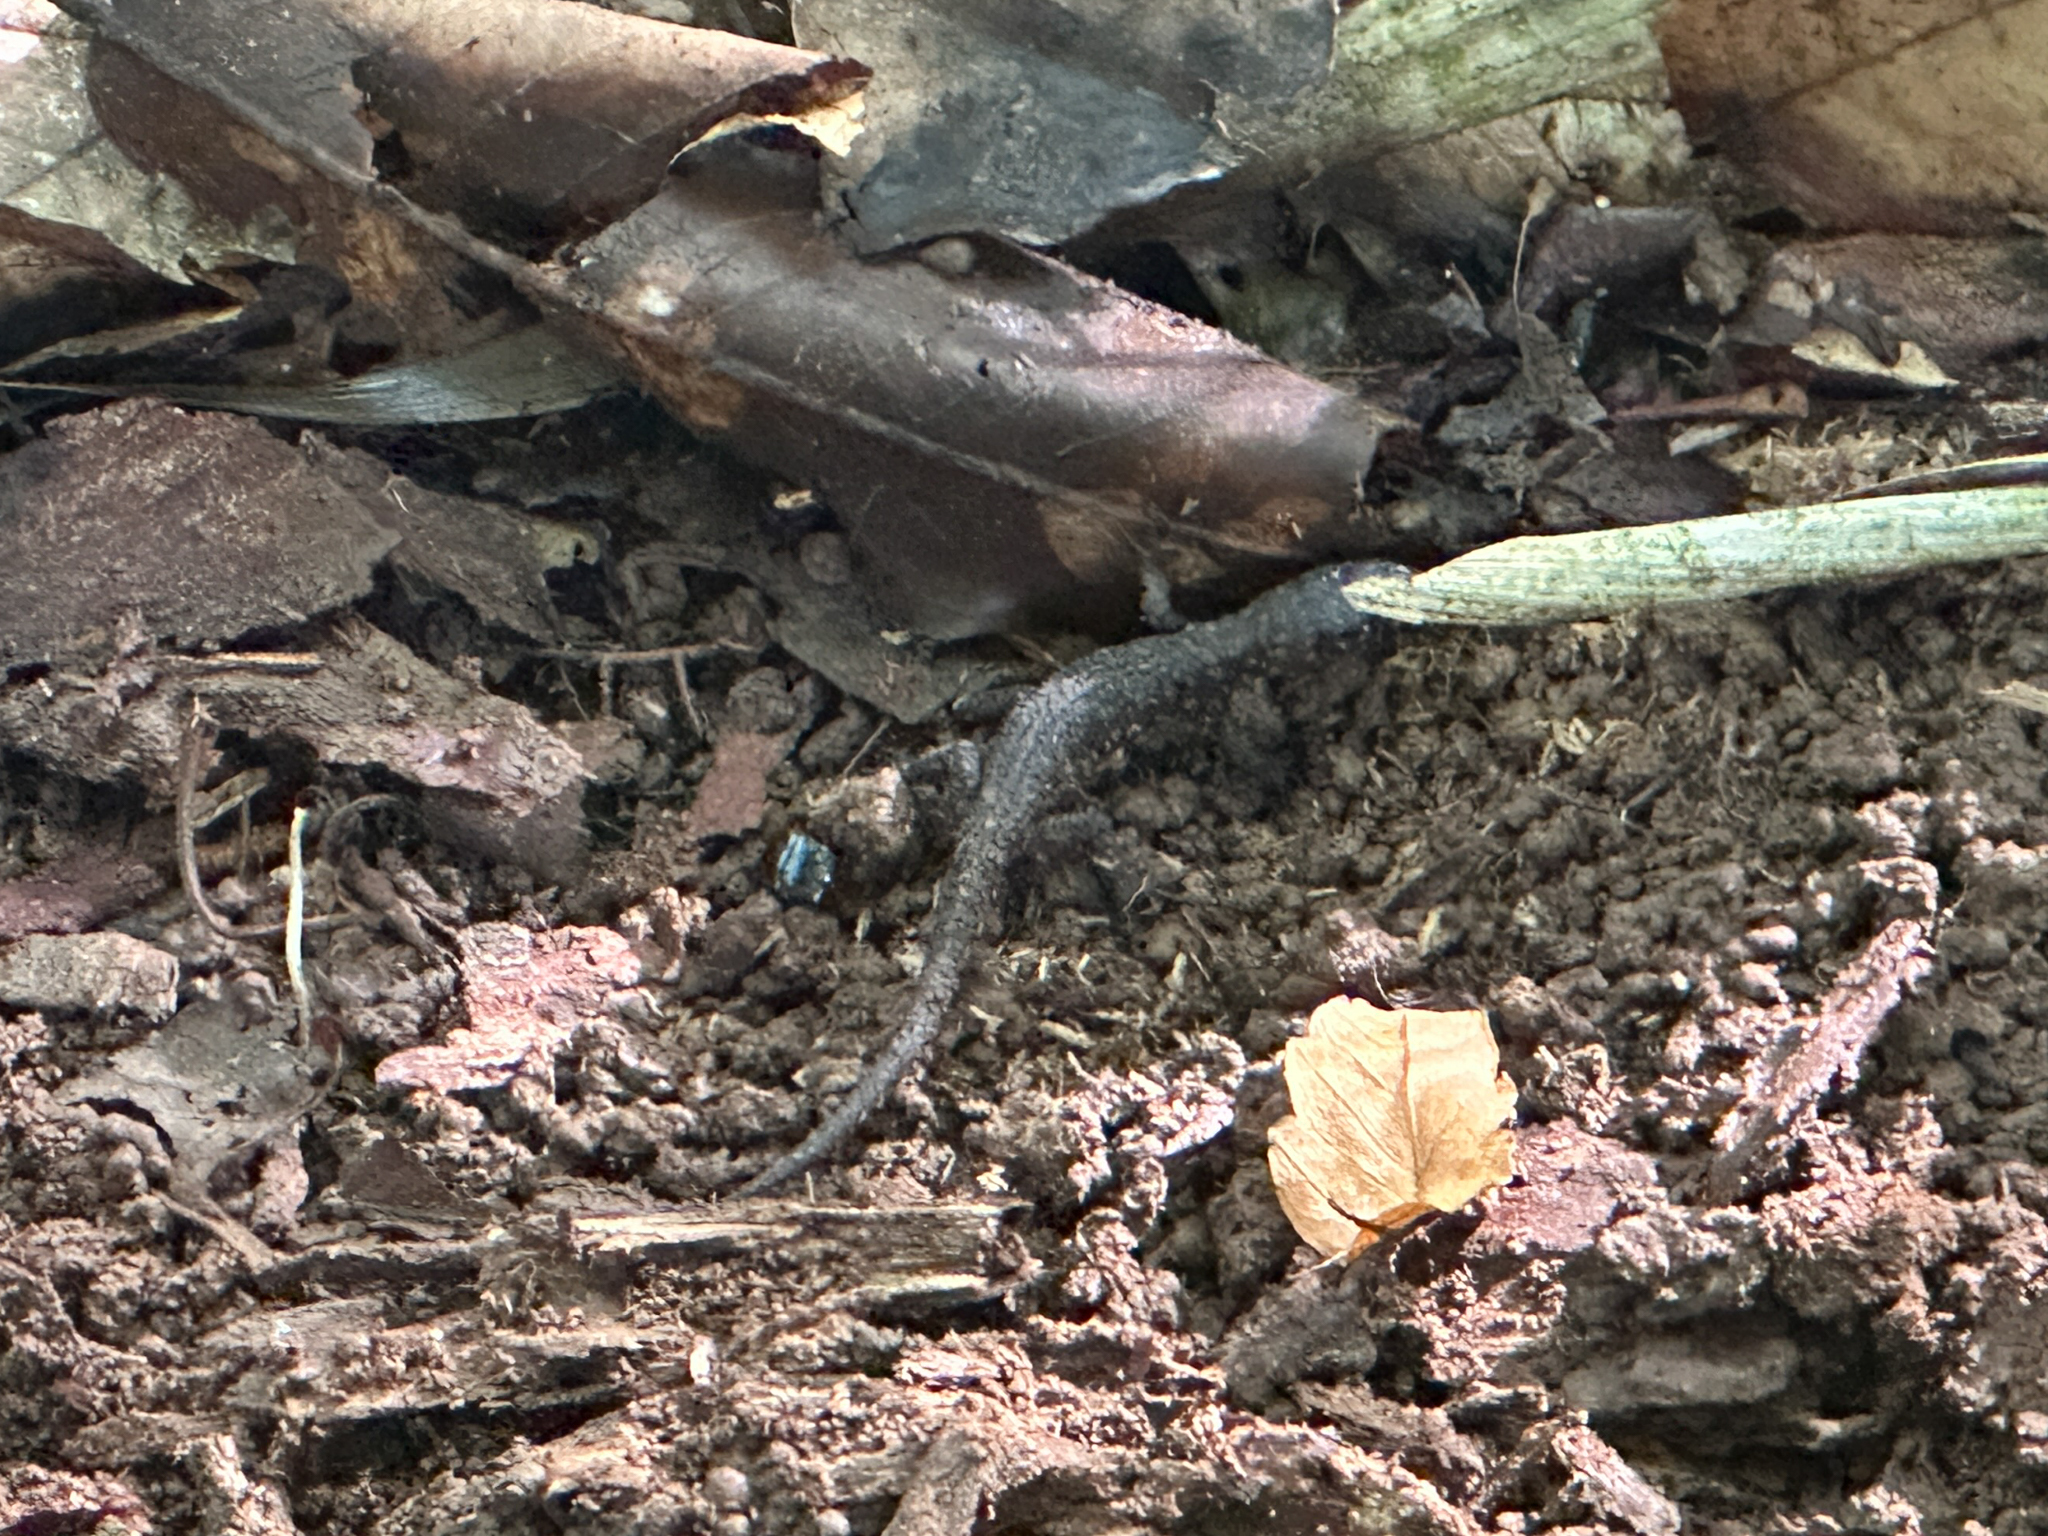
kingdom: Animalia
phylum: Chordata
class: Squamata
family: Xantusiidae
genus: Lepidophyma
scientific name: Lepidophyma flavimaculatum
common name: Yellow-spotted night lizard
